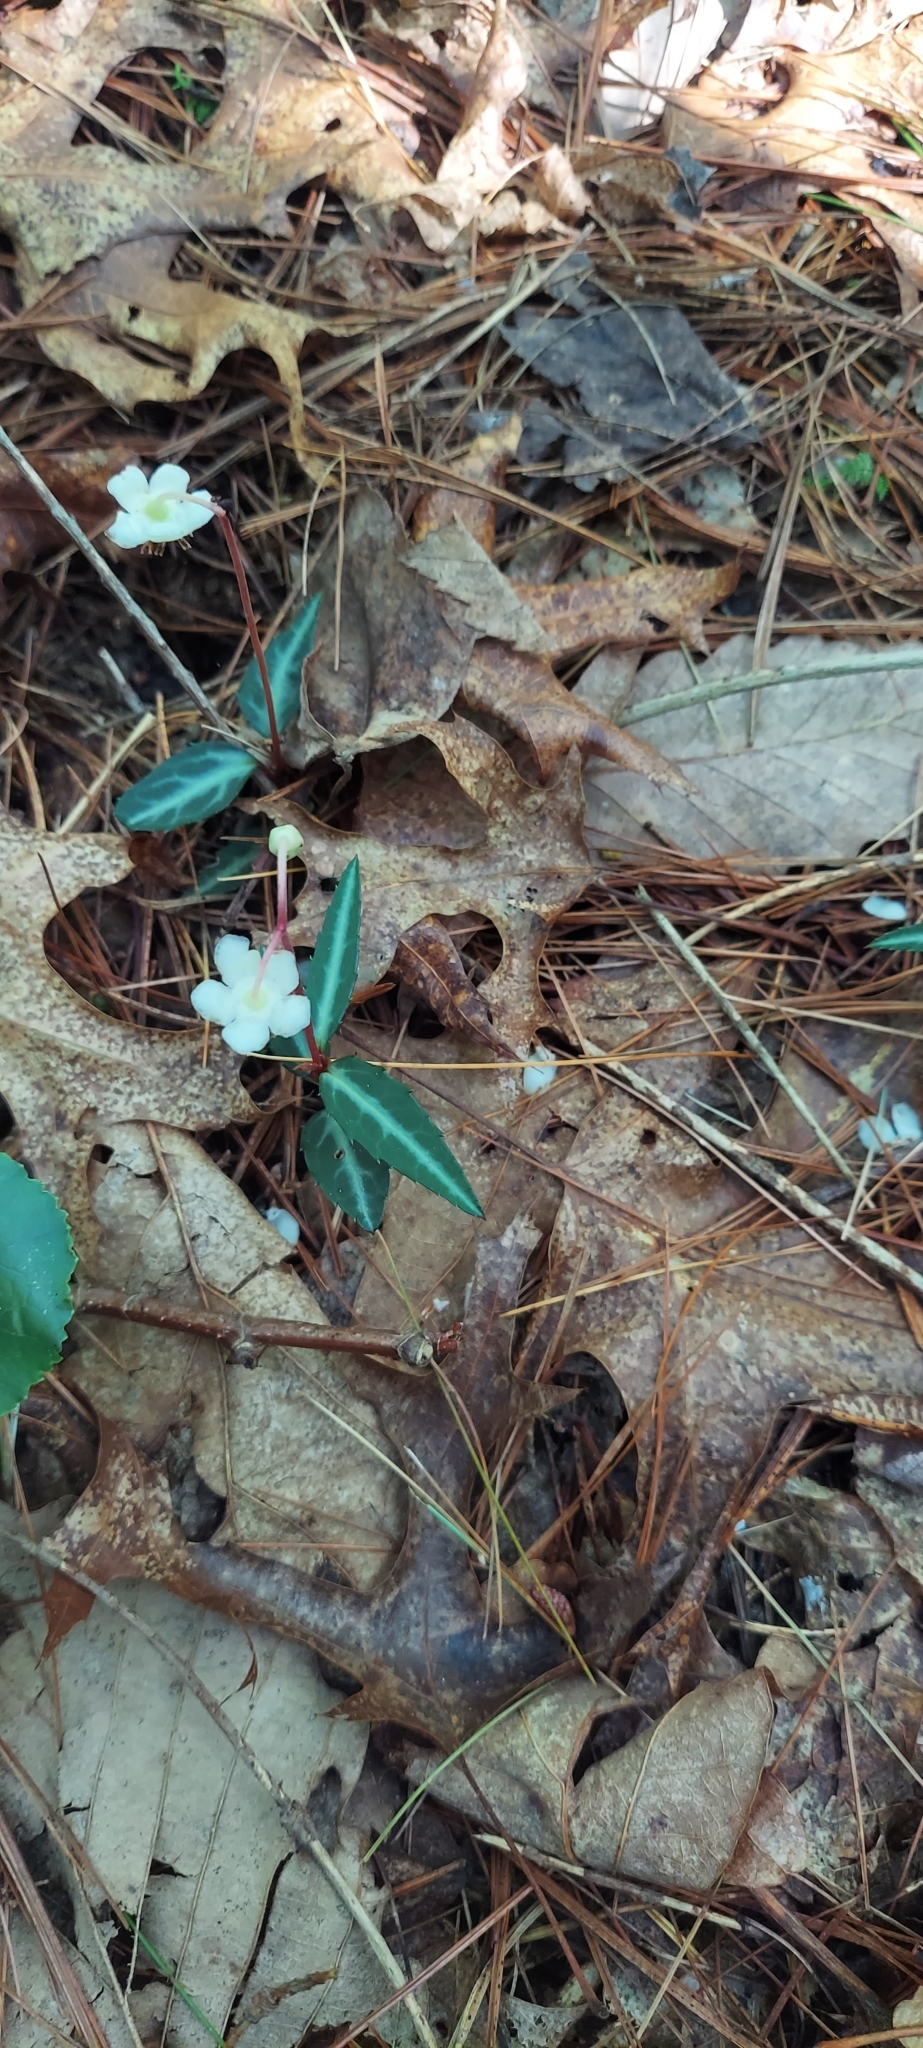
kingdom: Plantae
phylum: Tracheophyta
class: Magnoliopsida
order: Ericales
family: Ericaceae
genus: Chimaphila
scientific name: Chimaphila maculata
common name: Spotted pipsissewa
